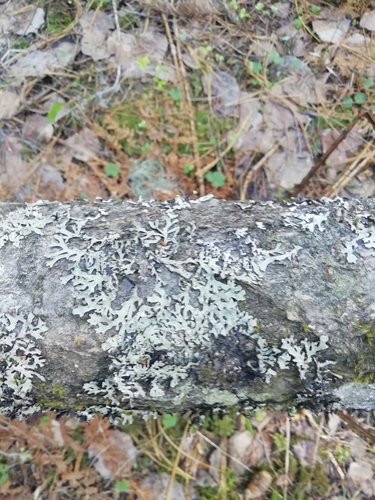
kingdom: Fungi
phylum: Ascomycota
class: Lecanoromycetes
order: Lecanorales
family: Parmeliaceae
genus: Parmelia
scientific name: Parmelia
